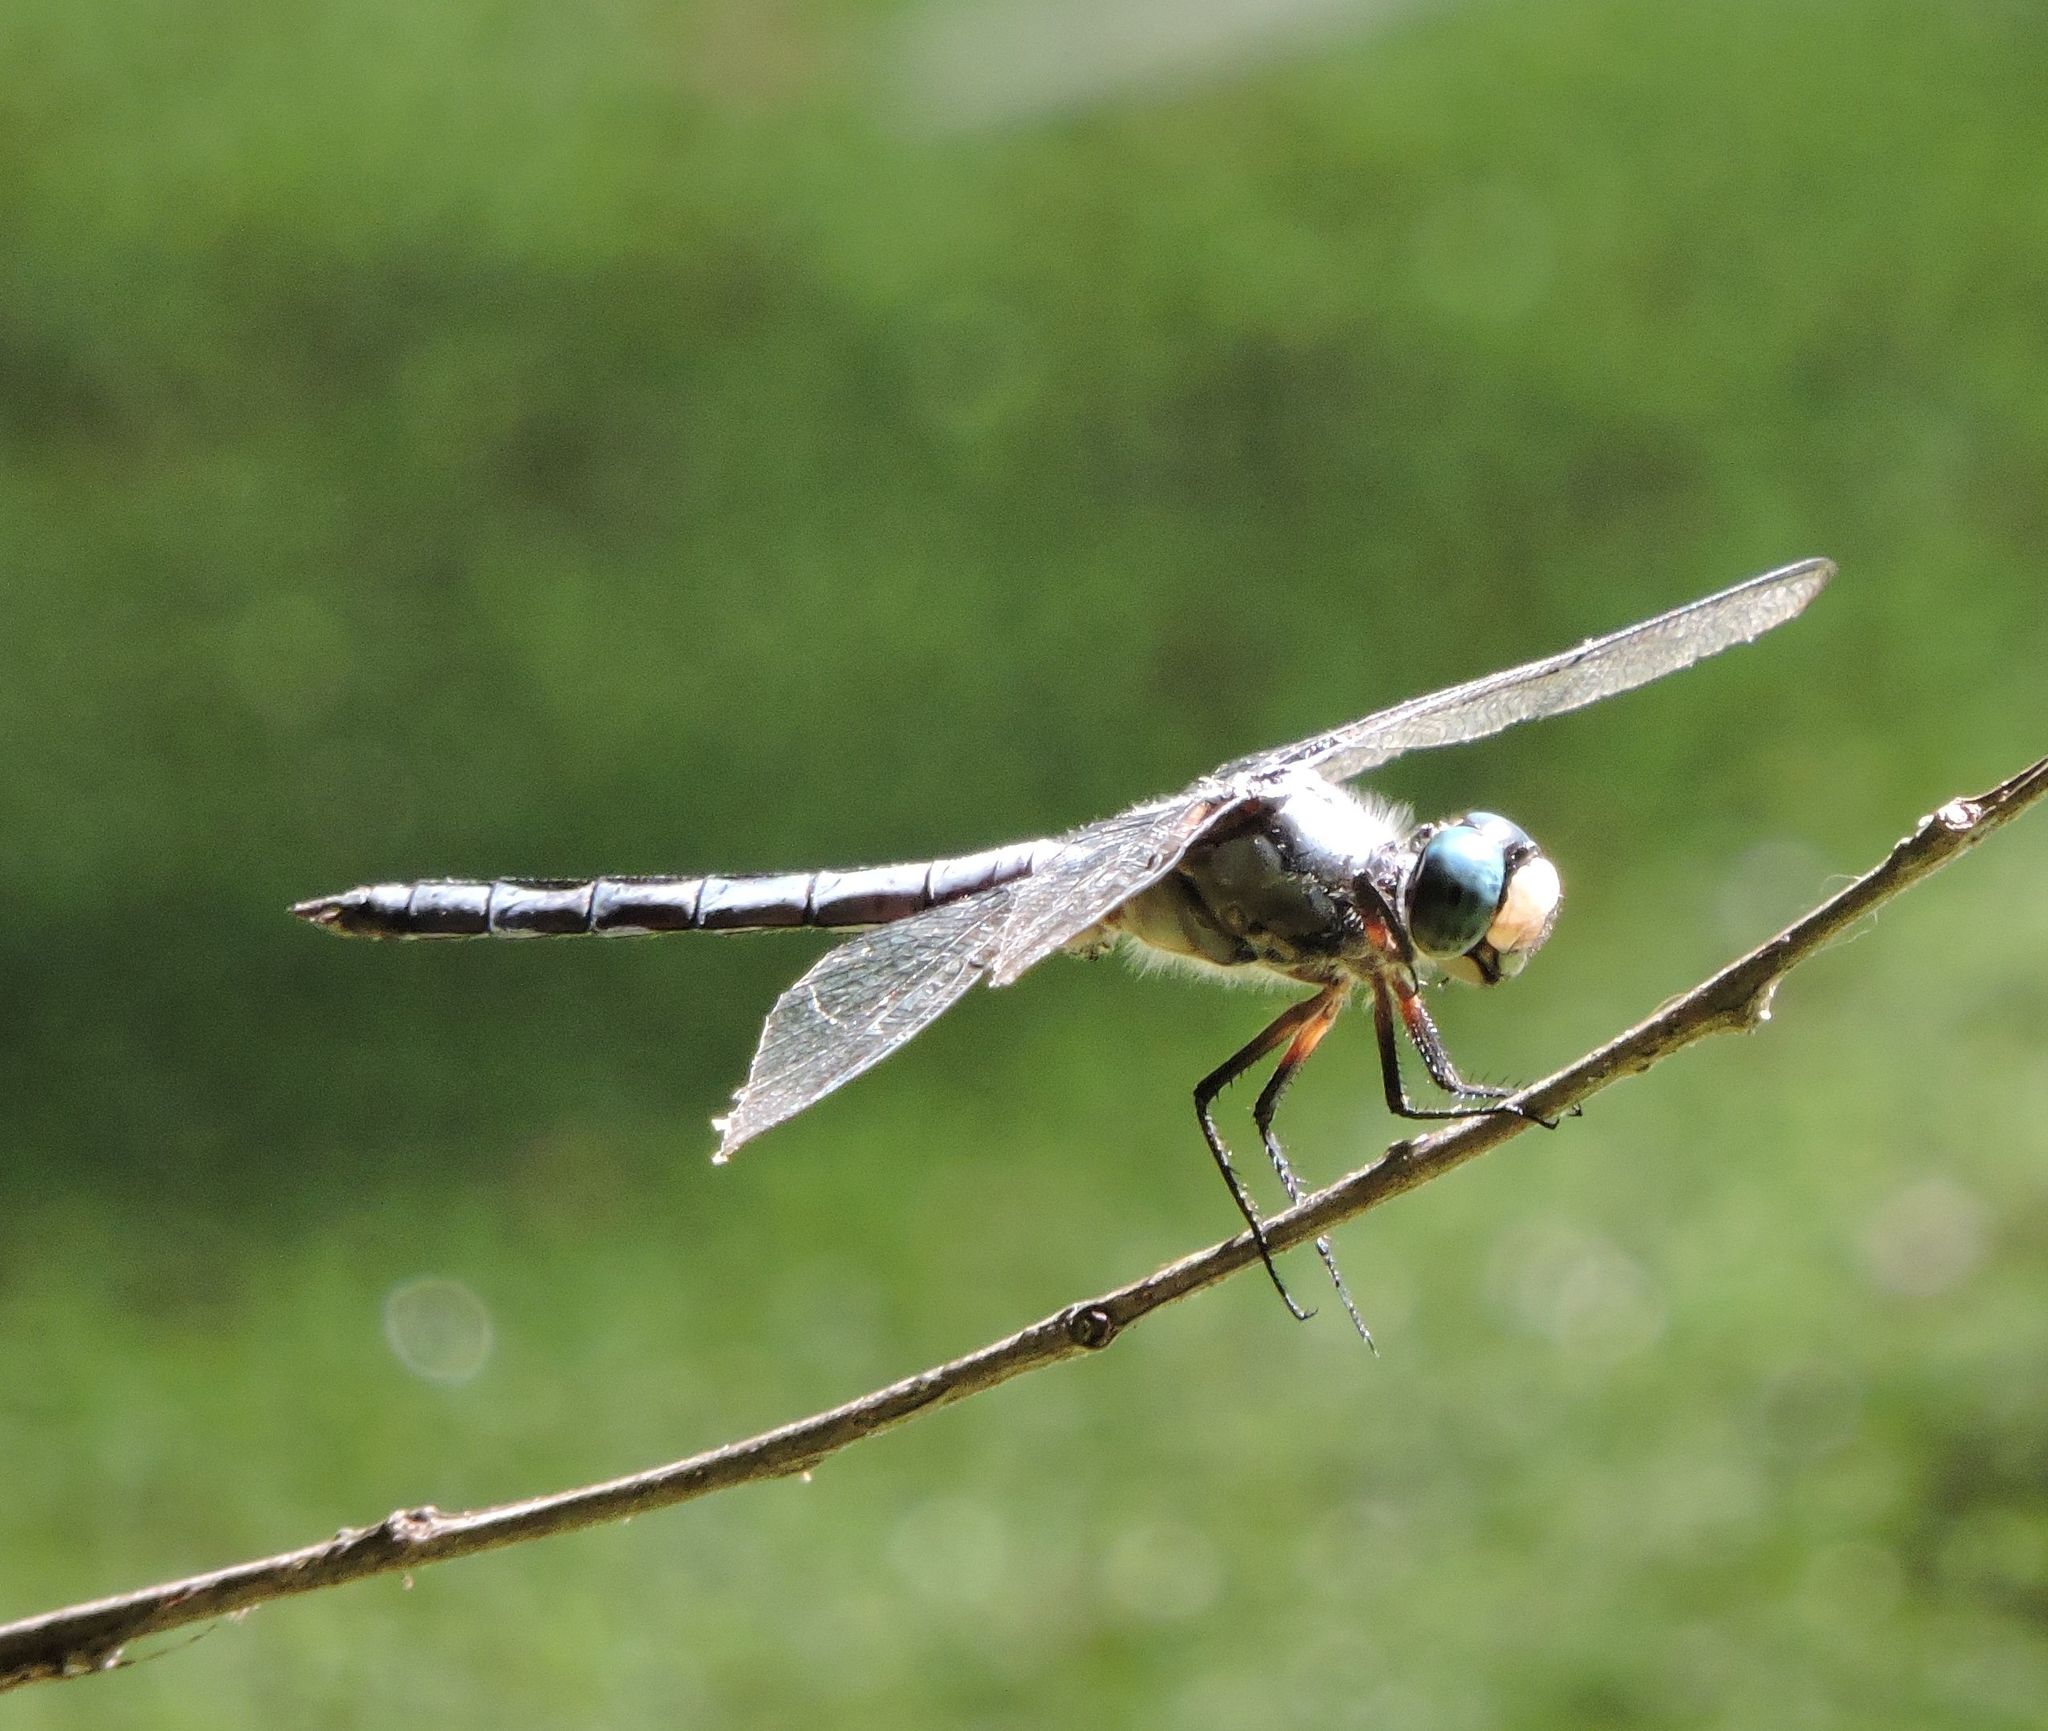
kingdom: Animalia
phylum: Arthropoda
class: Insecta
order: Odonata
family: Libellulidae
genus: Libellula
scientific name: Libellula vibrans
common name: Great blue skimmer
